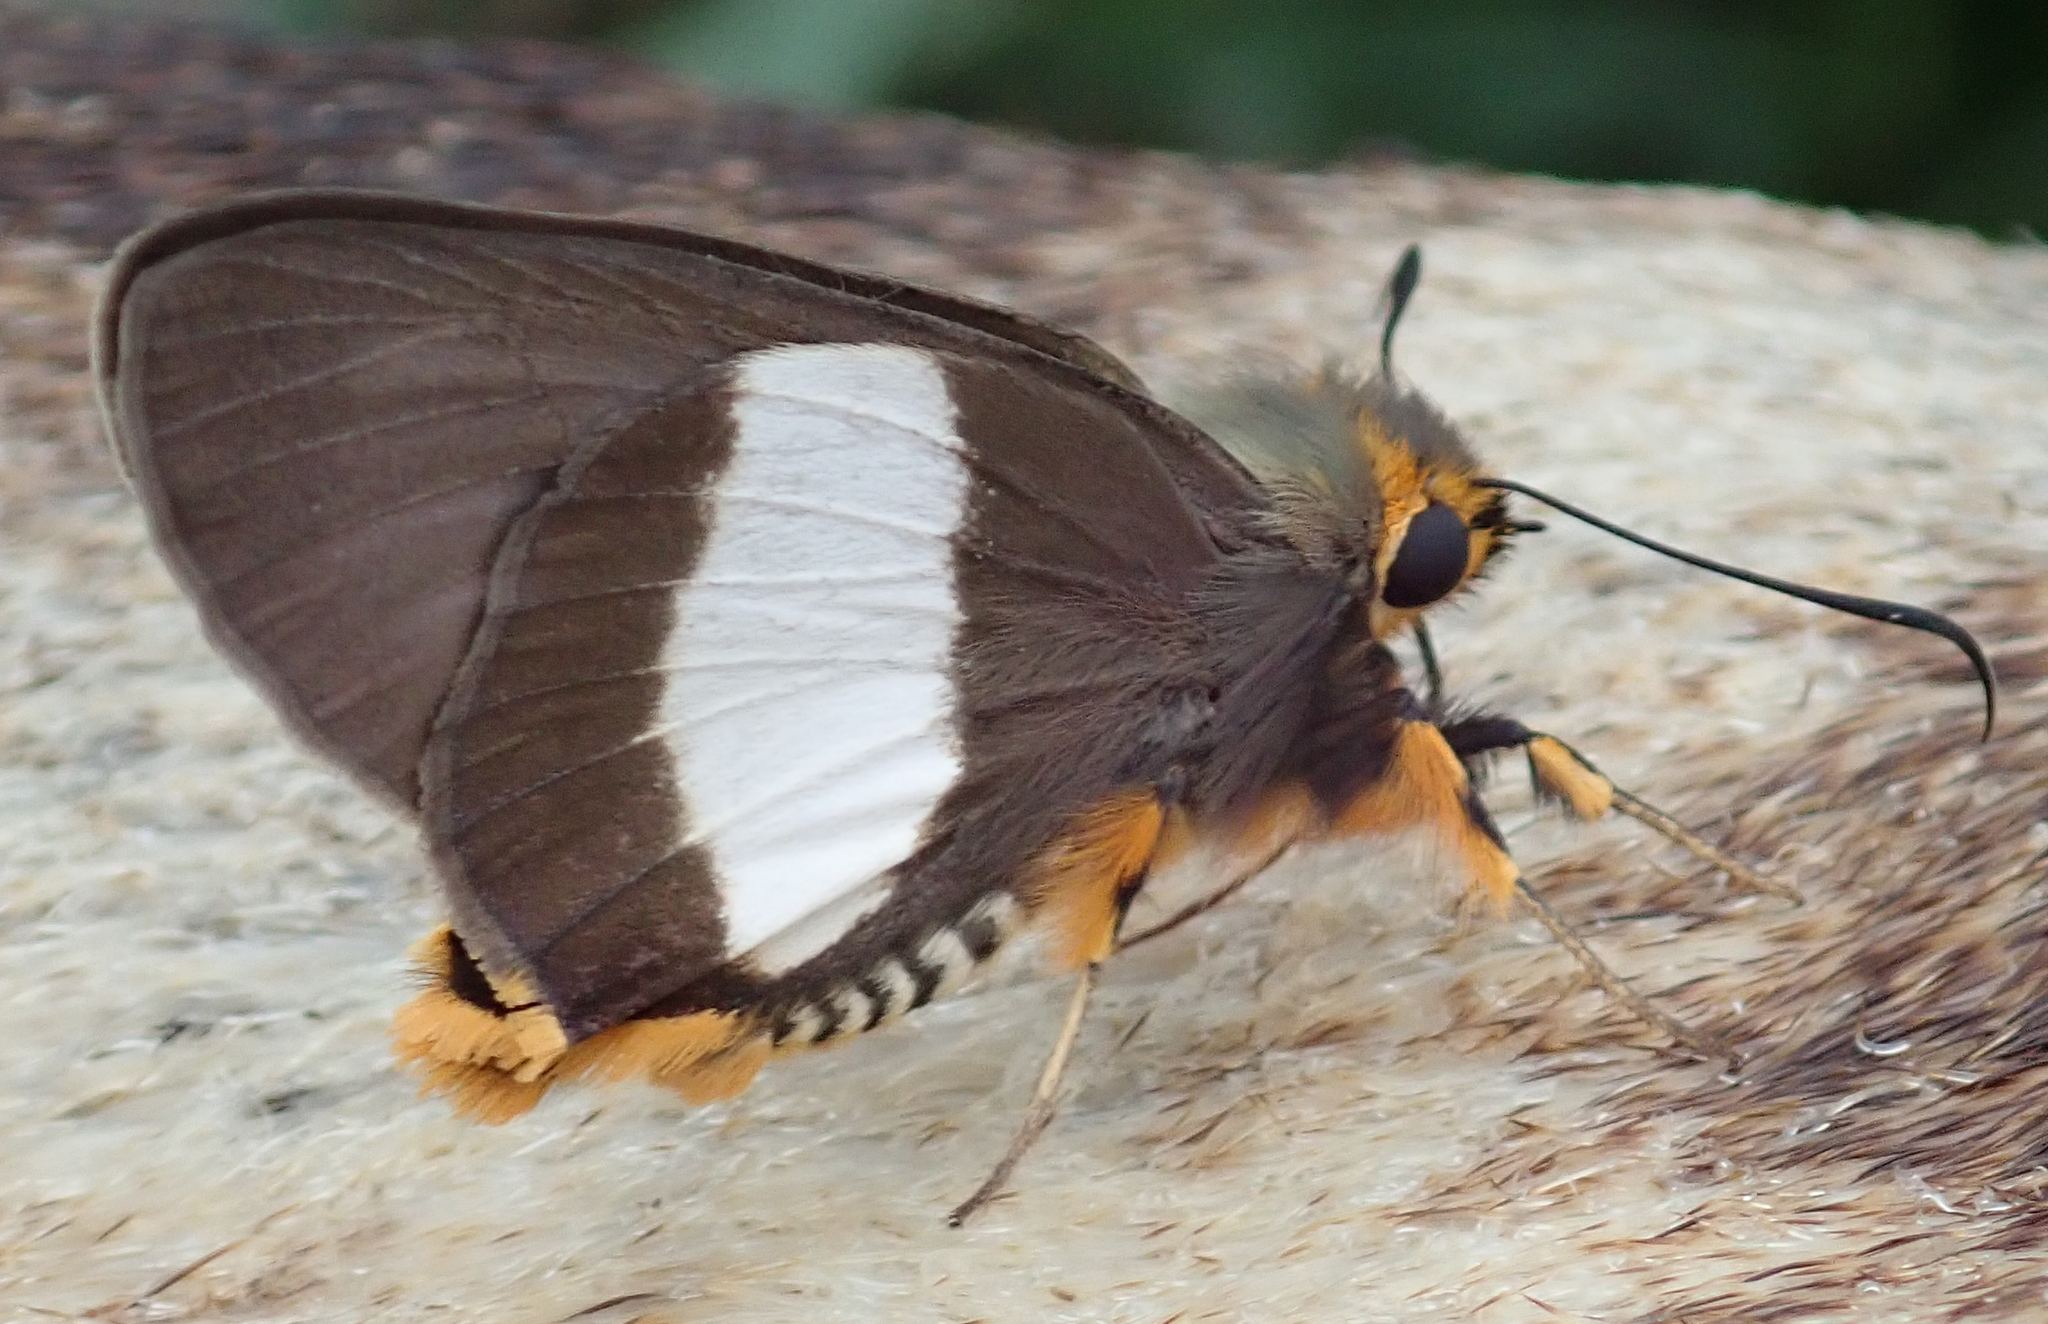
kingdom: Animalia
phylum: Arthropoda
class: Insecta
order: Lepidoptera
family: Hesperiidae
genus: Coeliades
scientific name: Coeliades forestan
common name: Striped policeman
